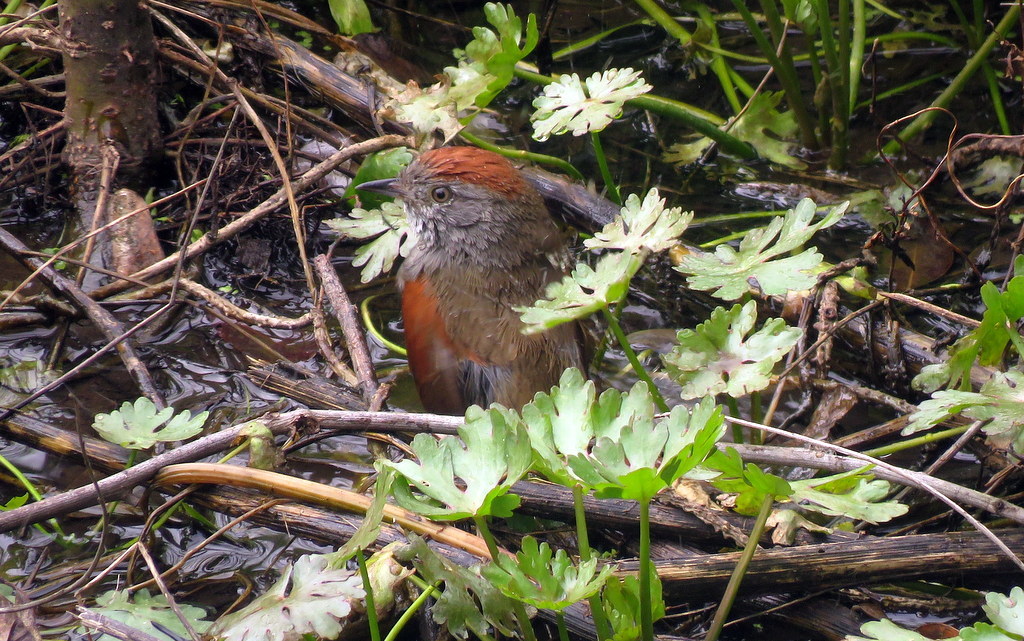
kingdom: Animalia
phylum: Chordata
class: Aves
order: Passeriformes
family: Furnariidae
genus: Synallaxis
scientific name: Synallaxis frontalis
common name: Sooty-fronted spinetail
